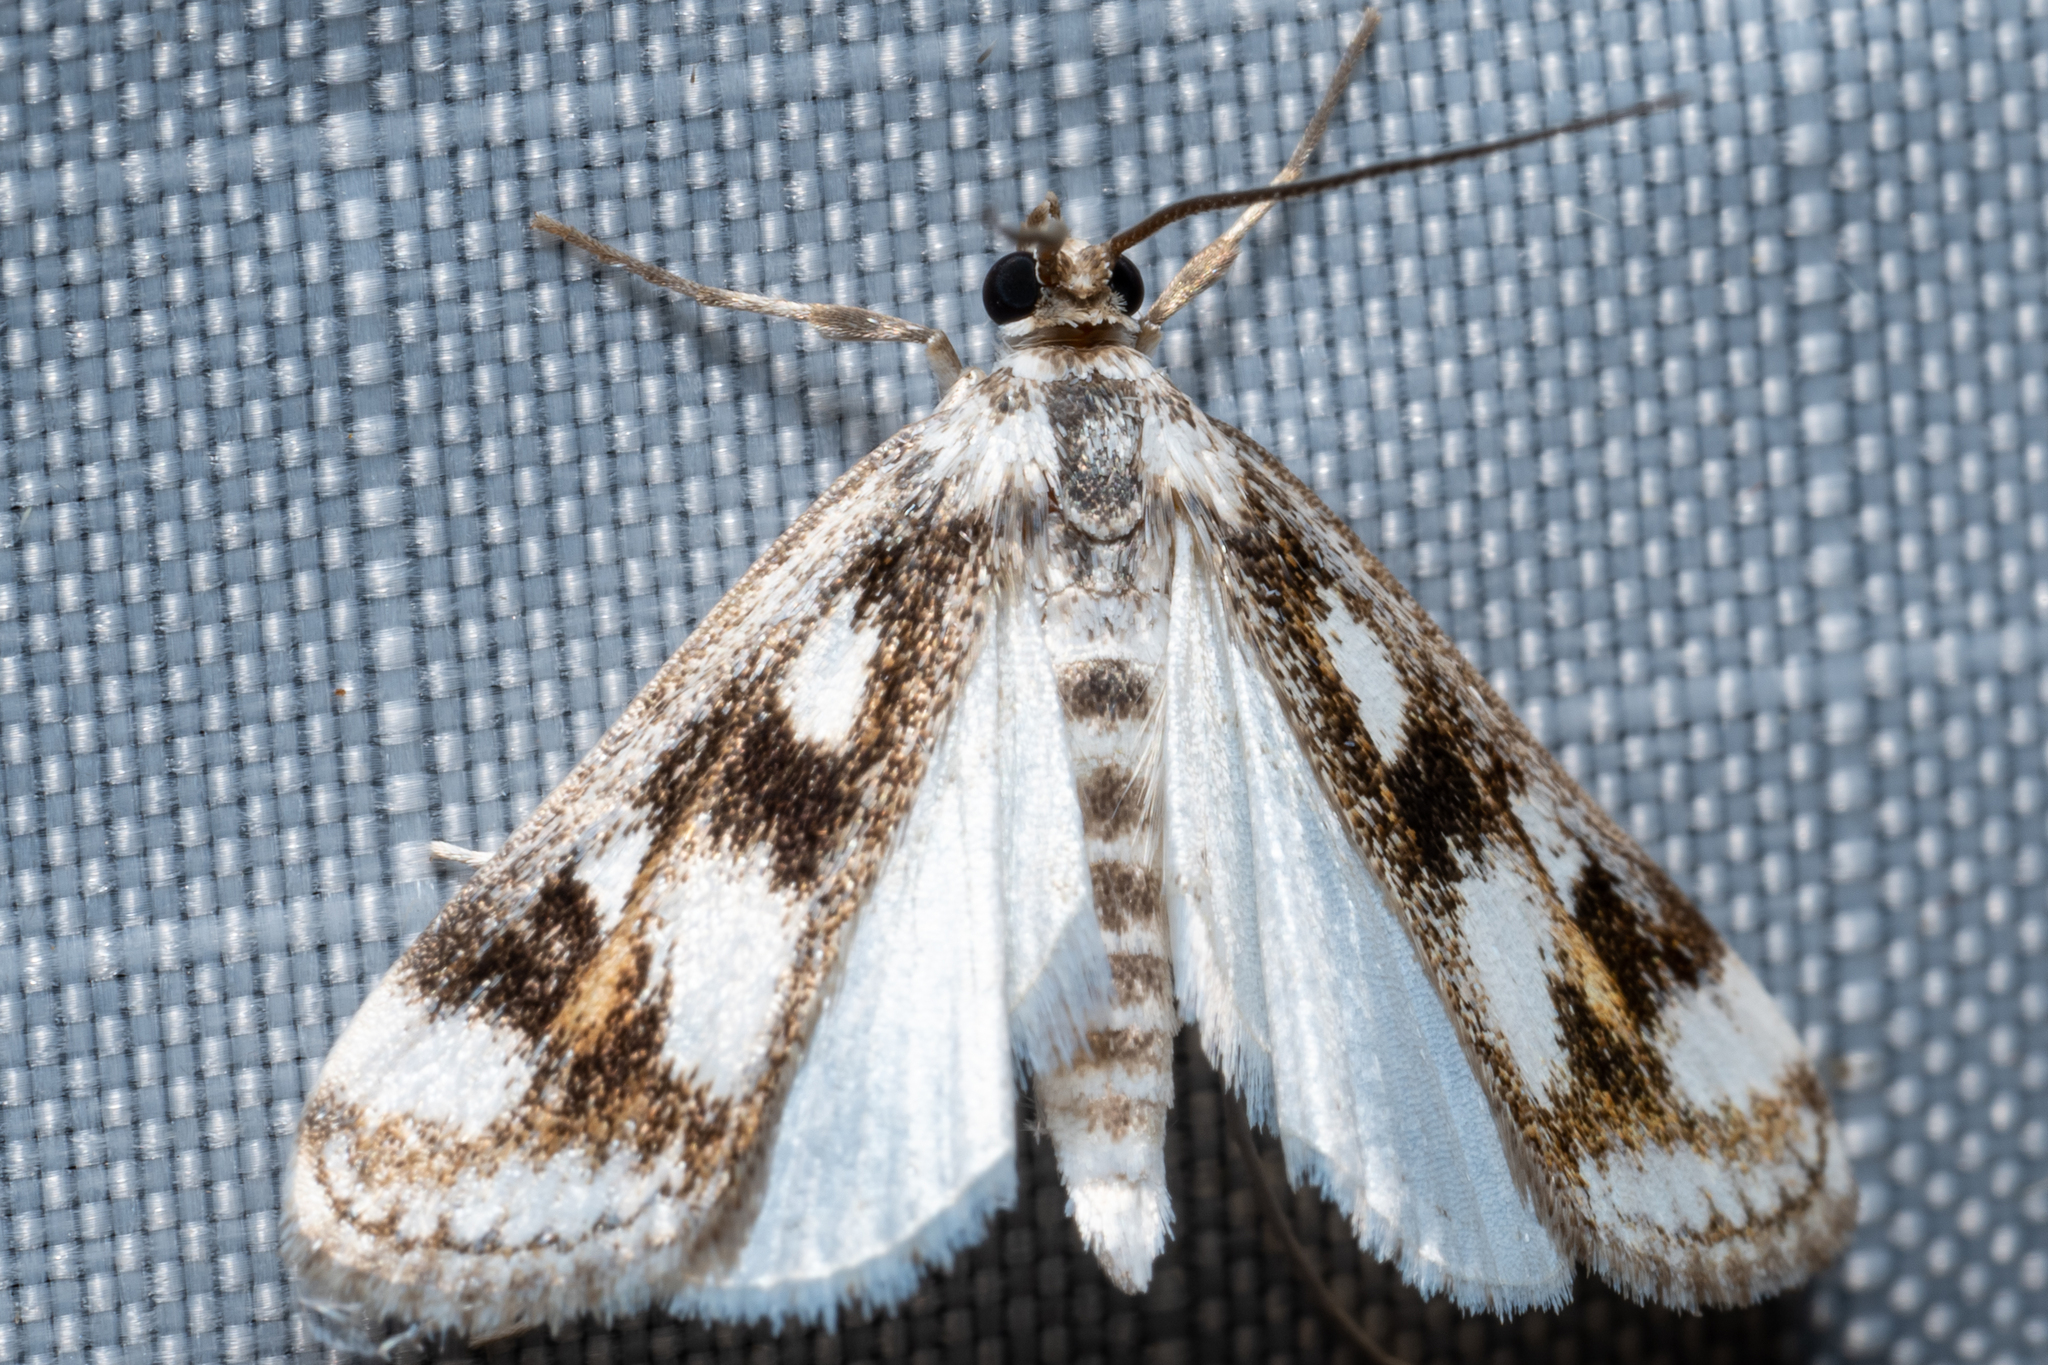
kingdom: Animalia
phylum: Arthropoda
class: Insecta
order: Lepidoptera
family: Crambidae
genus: Parapoynx
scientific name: Parapoynx maculalis
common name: Polymorphic pondweed moth
